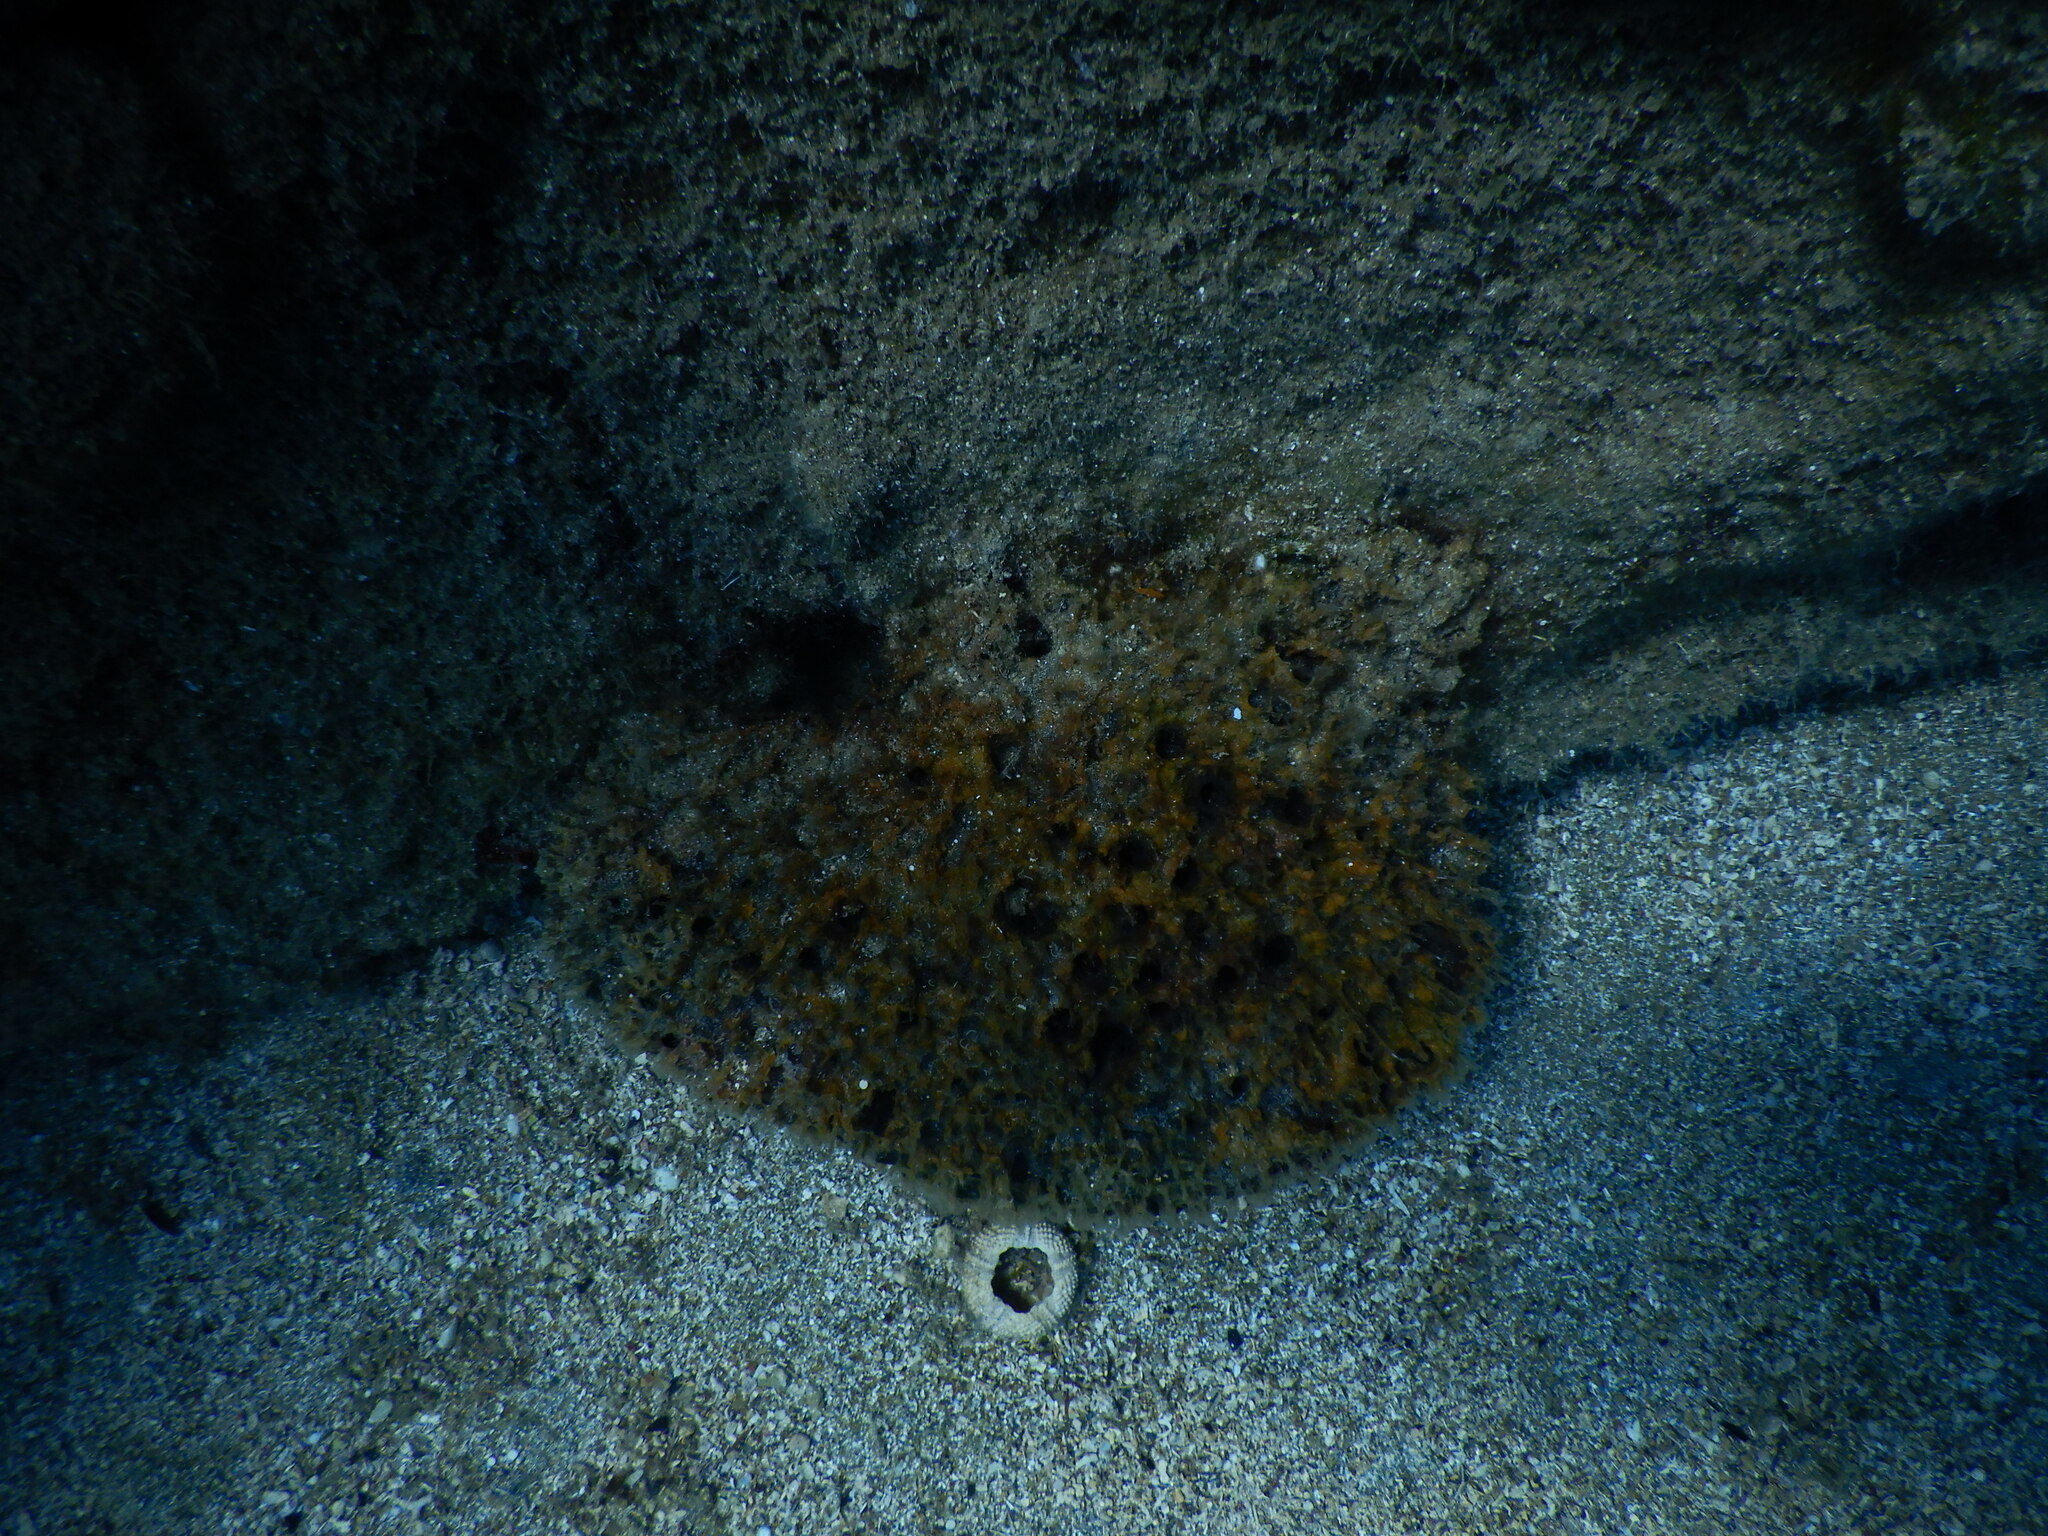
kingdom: Animalia
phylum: Echinodermata
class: Echinoidea
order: Arbacioida
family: Arbaciidae
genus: Arbacia
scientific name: Arbacia lixula
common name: Black sea urchin
